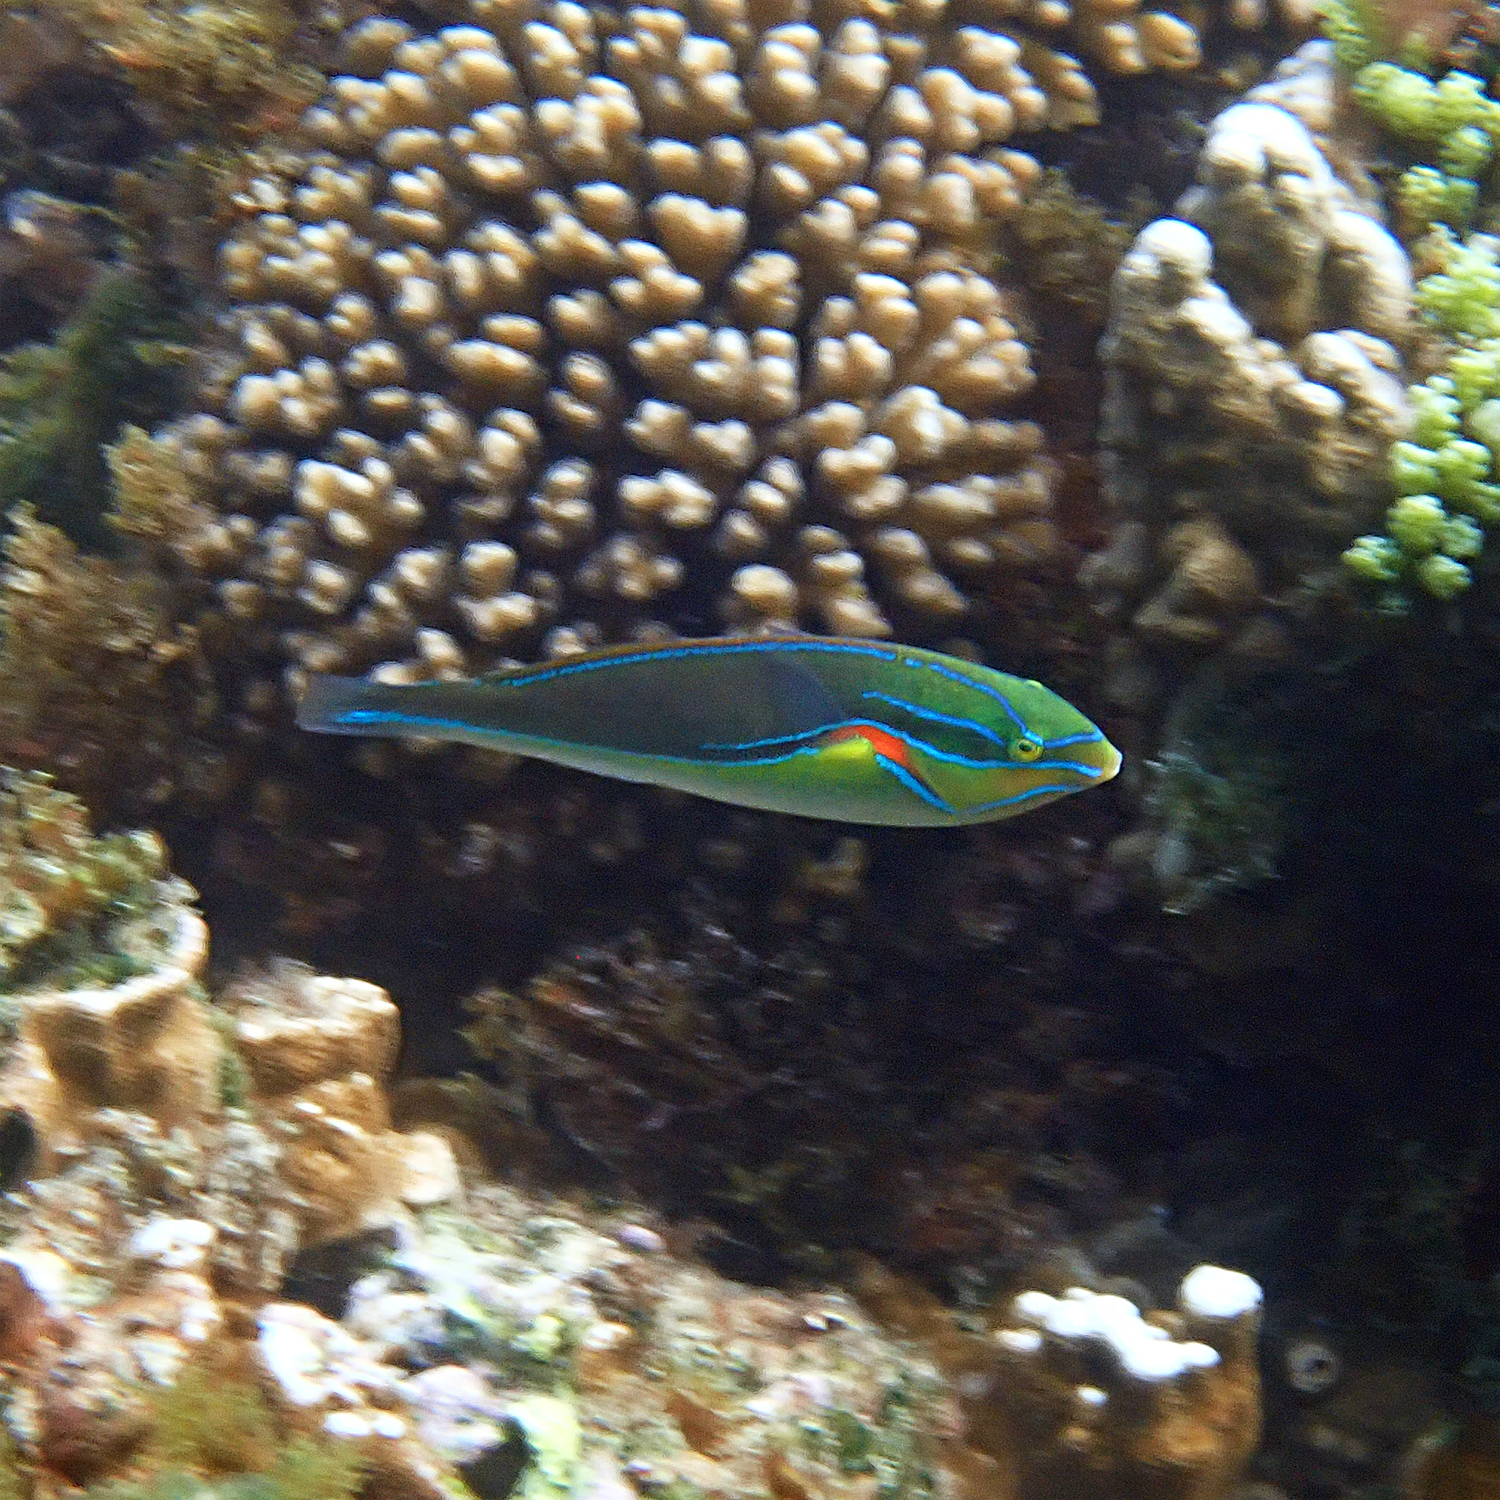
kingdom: Animalia
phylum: Chordata
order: Perciformes
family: Labridae
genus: Stethojulis
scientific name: Stethojulis bandanensis
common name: Red shoulder wrasse
